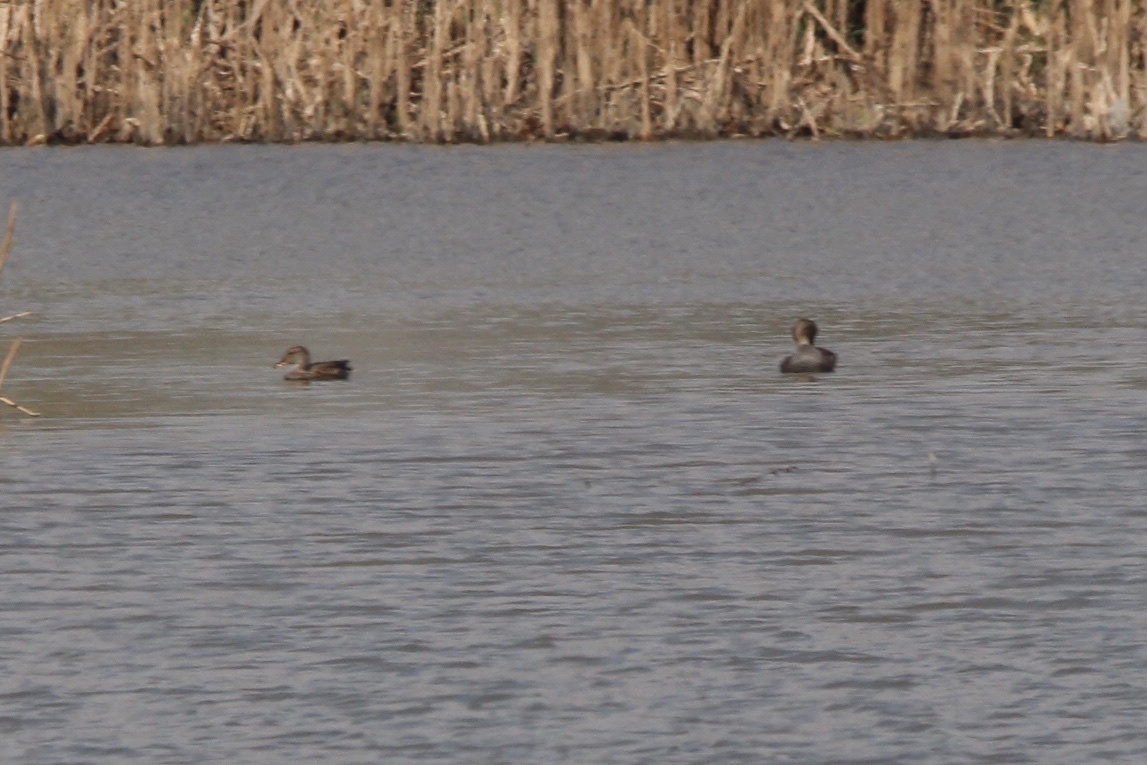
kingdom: Animalia
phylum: Chordata
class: Aves
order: Anseriformes
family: Anatidae
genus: Mareca
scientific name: Mareca strepera
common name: Gadwall
